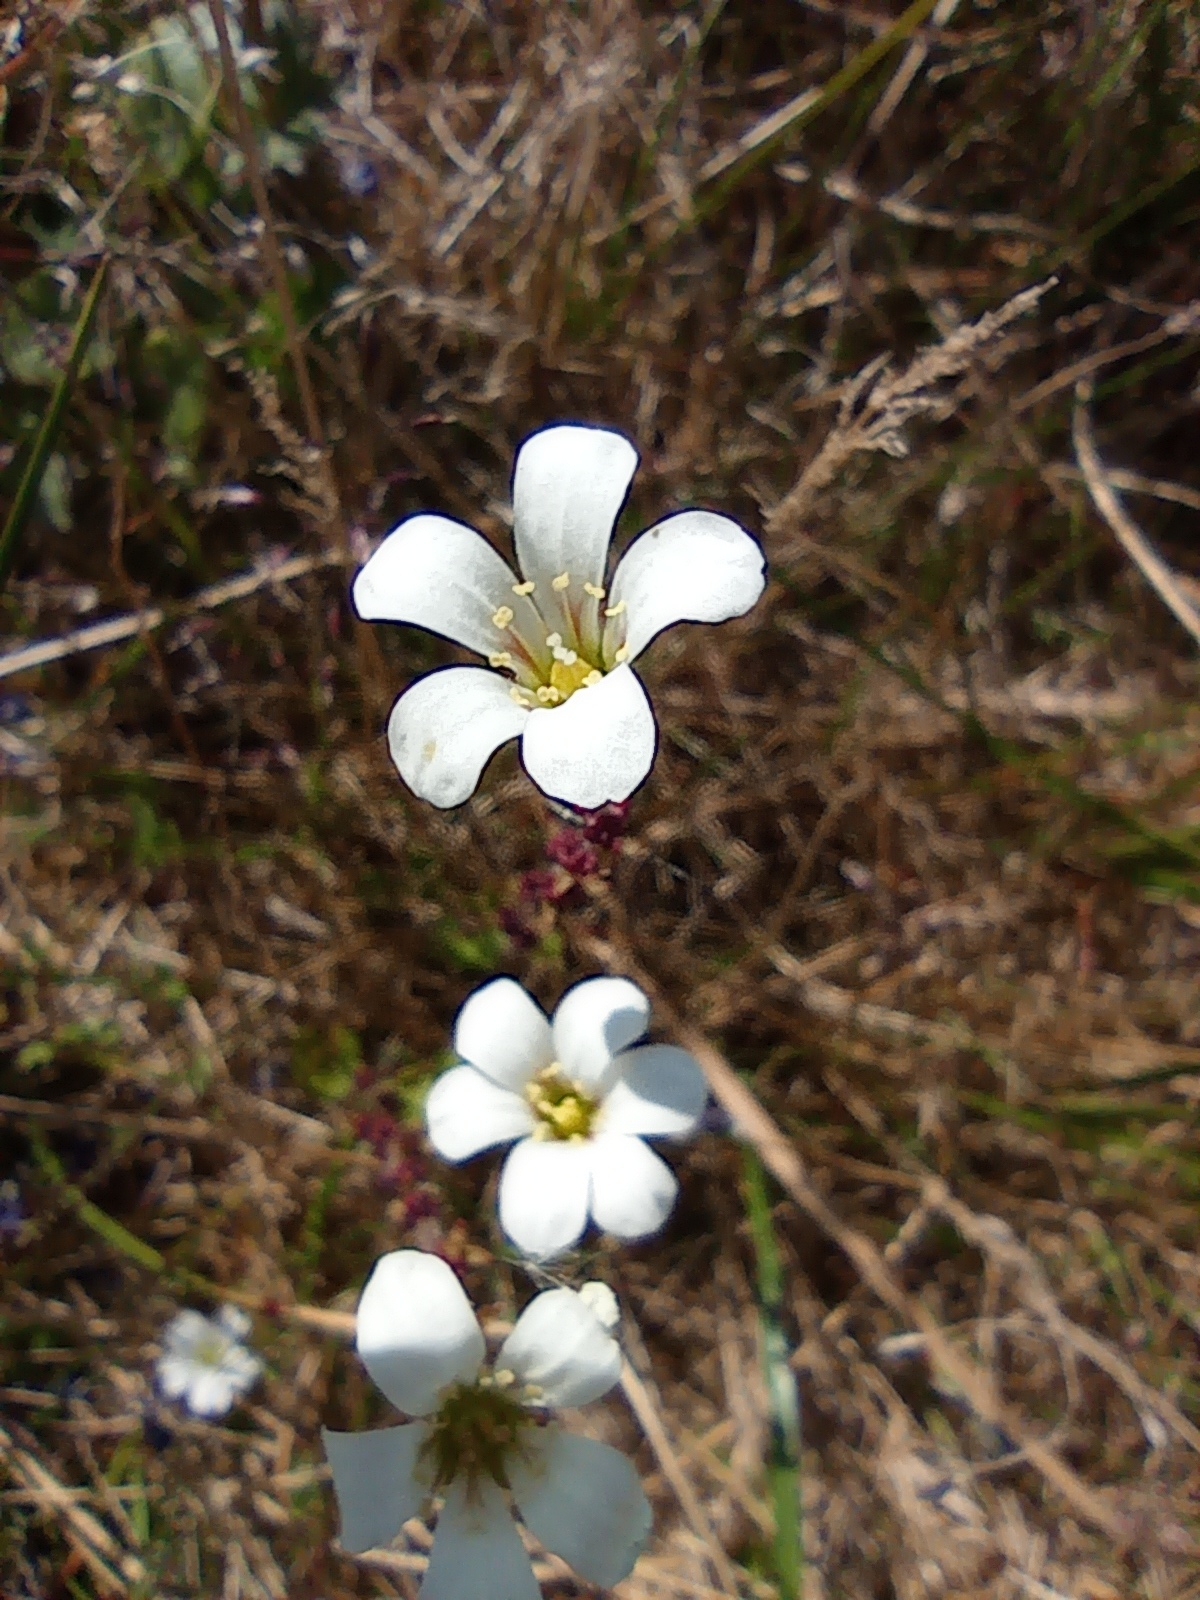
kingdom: Plantae
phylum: Tracheophyta
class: Magnoliopsida
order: Saxifragales
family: Saxifragaceae
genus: Saxifraga
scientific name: Saxifraga cernua
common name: Drooping saxifrage
